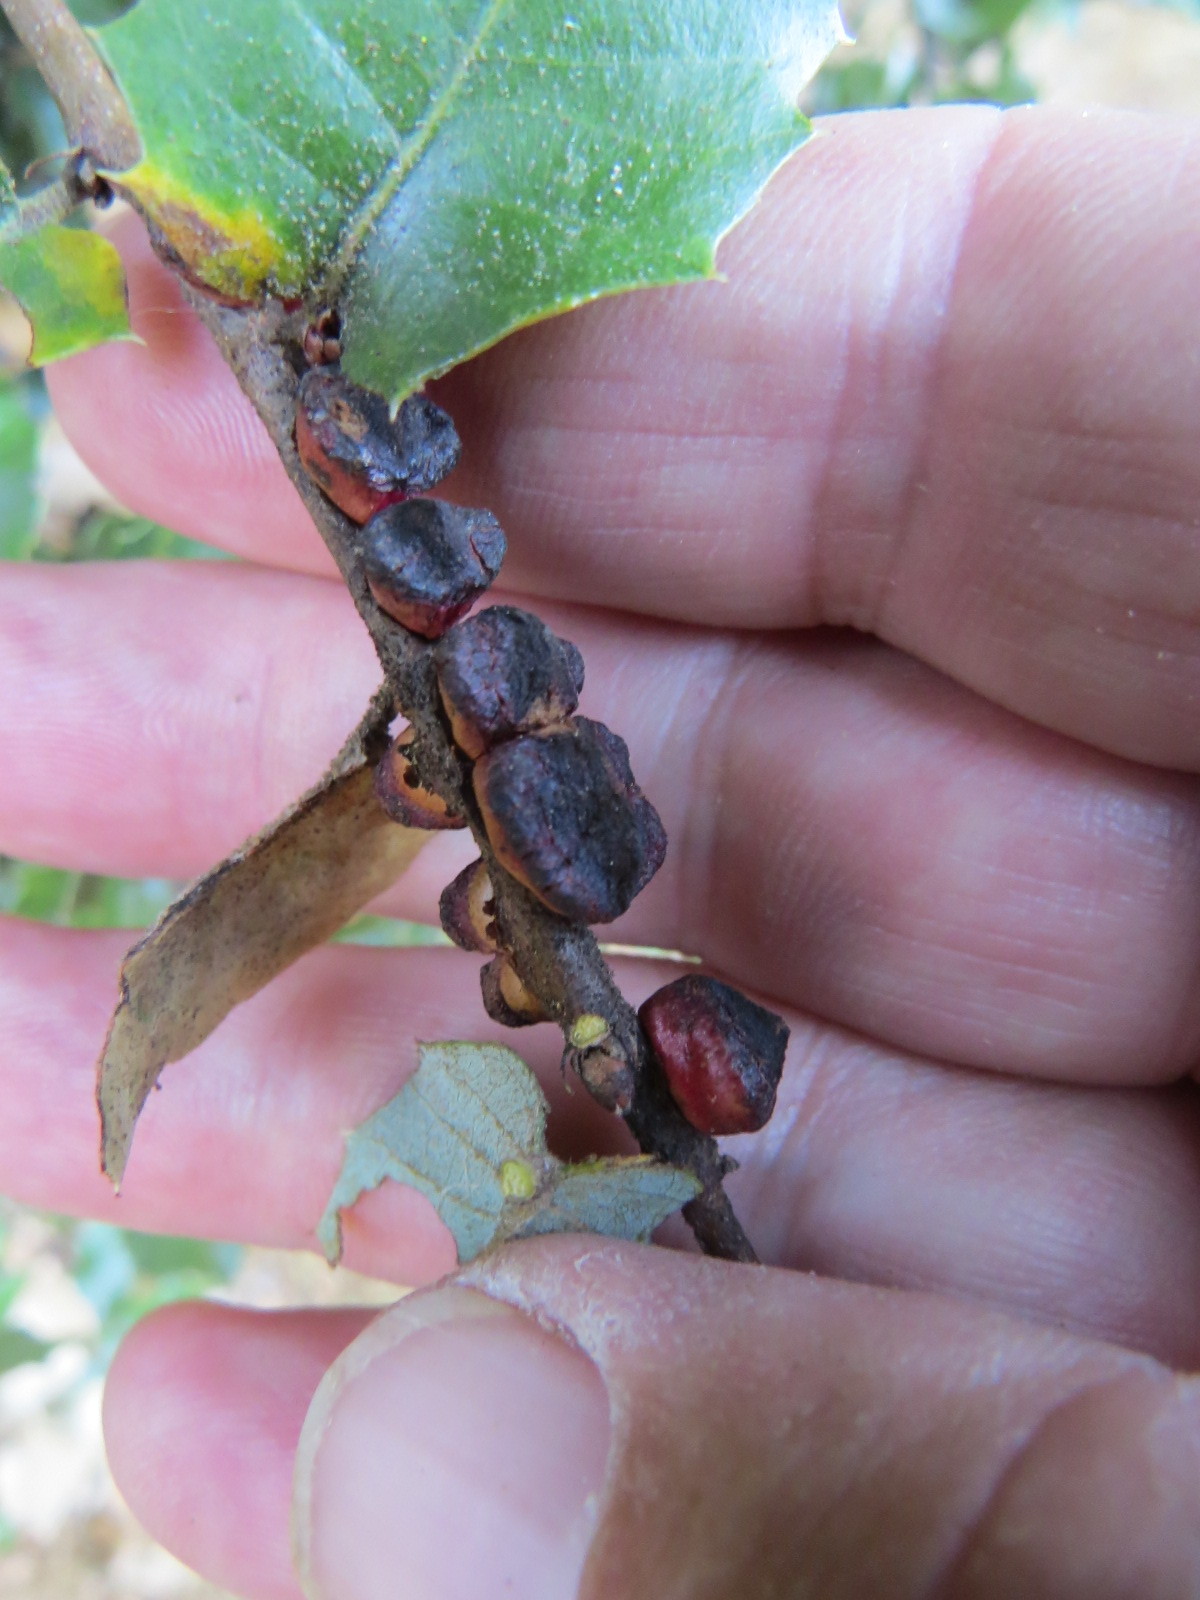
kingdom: Animalia
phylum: Arthropoda
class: Insecta
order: Hymenoptera
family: Cynipidae
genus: Disholandricus
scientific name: Disholandricus
